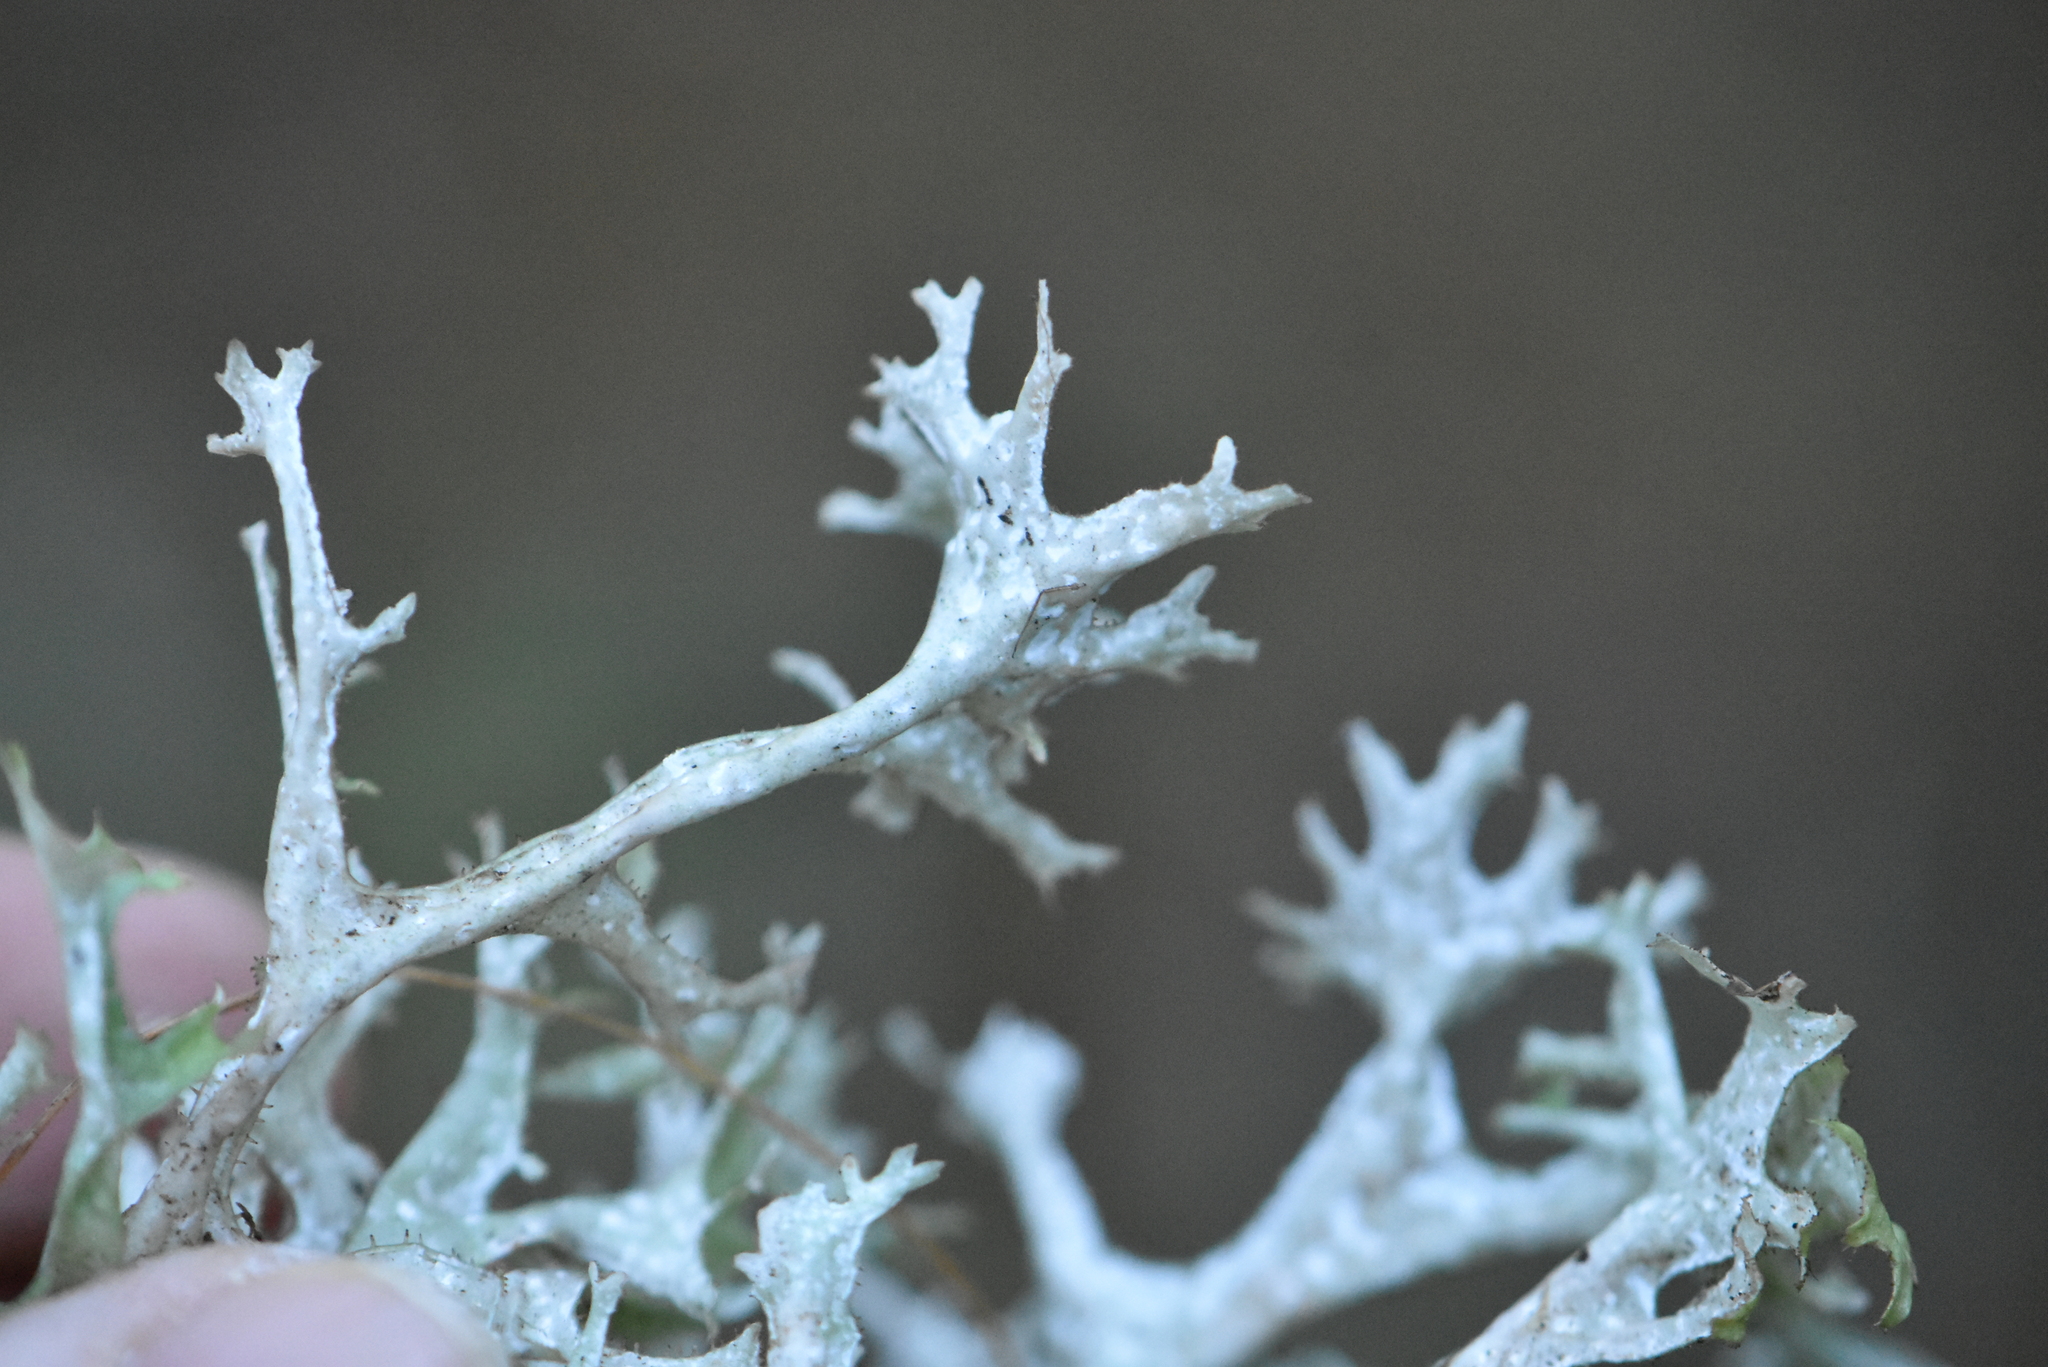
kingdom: Fungi
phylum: Ascomycota
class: Lecanoromycetes
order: Lecanorales
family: Parmeliaceae
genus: Cetraria
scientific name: Cetraria islandica
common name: Iceland lichen
